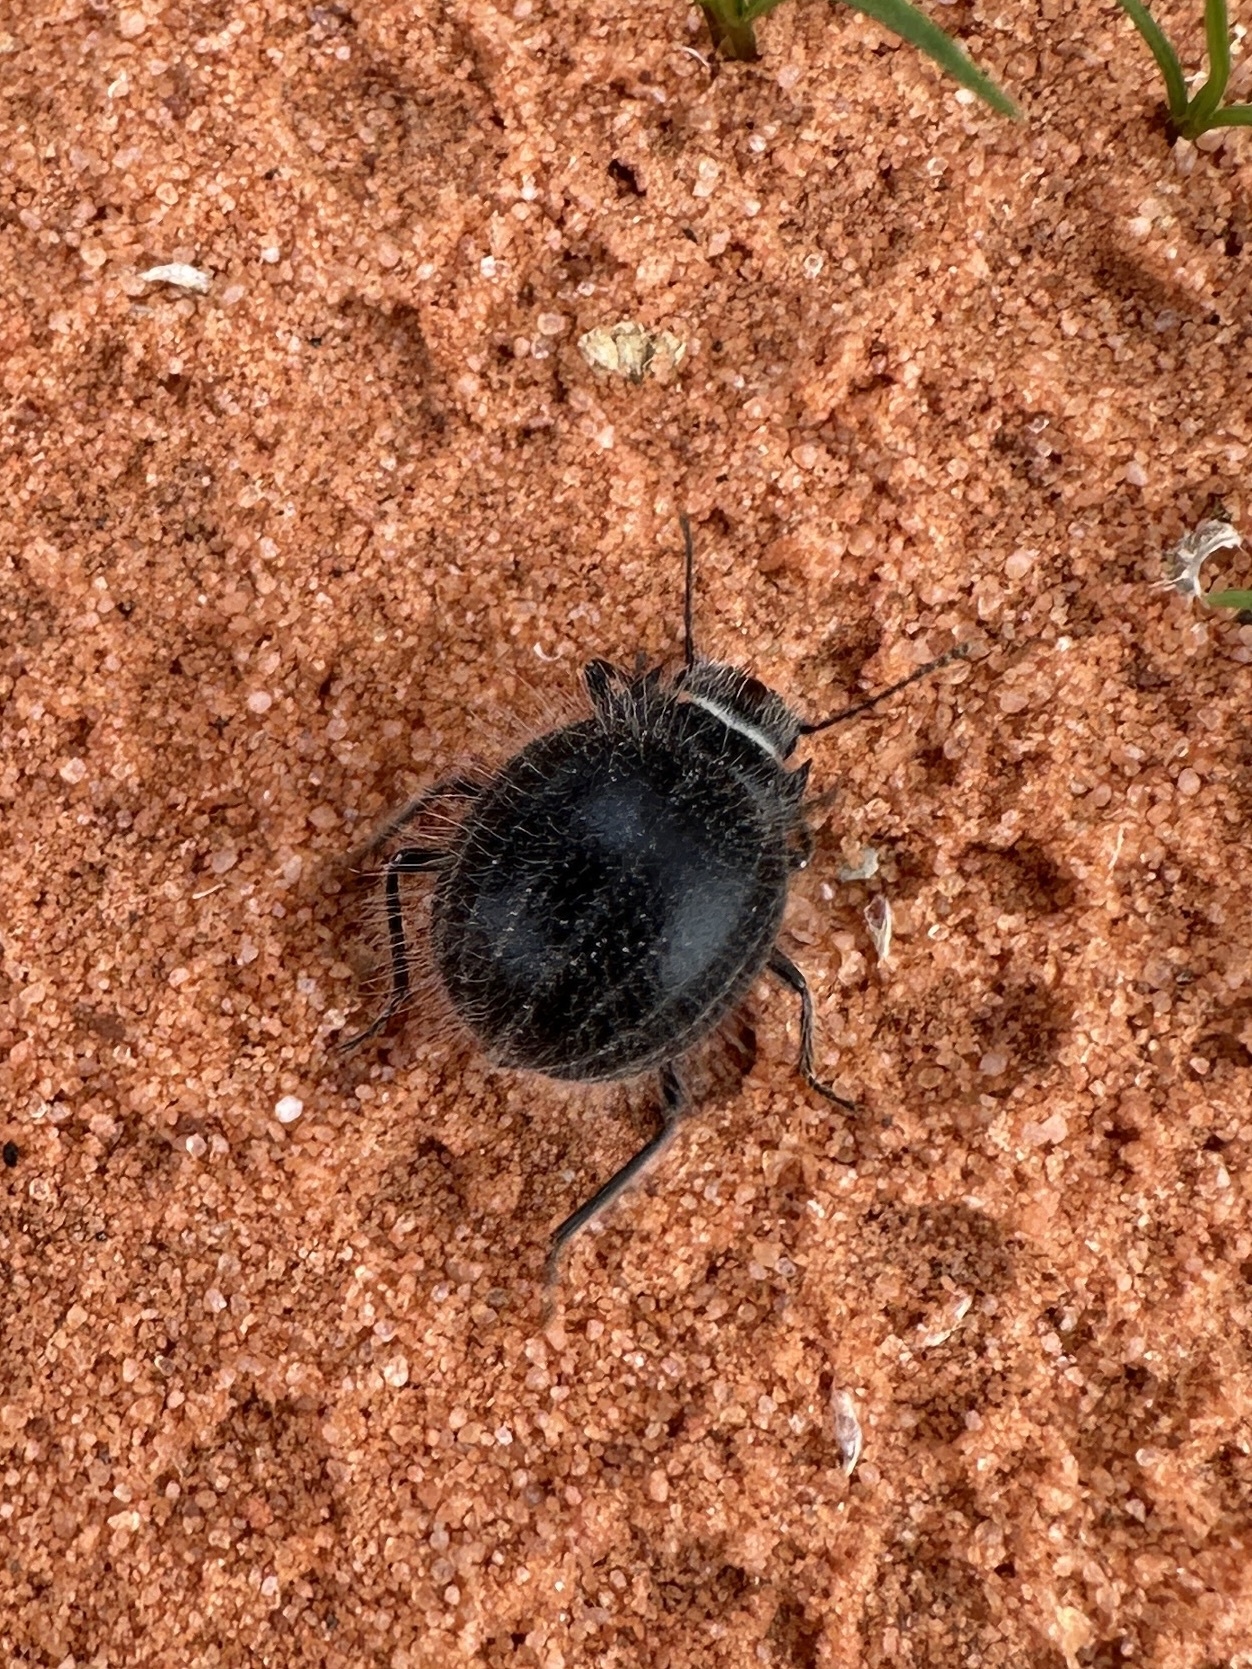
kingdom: Animalia
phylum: Arthropoda
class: Insecta
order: Coleoptera
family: Tenebrionidae
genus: Edrotes
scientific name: Edrotes ventricosus
